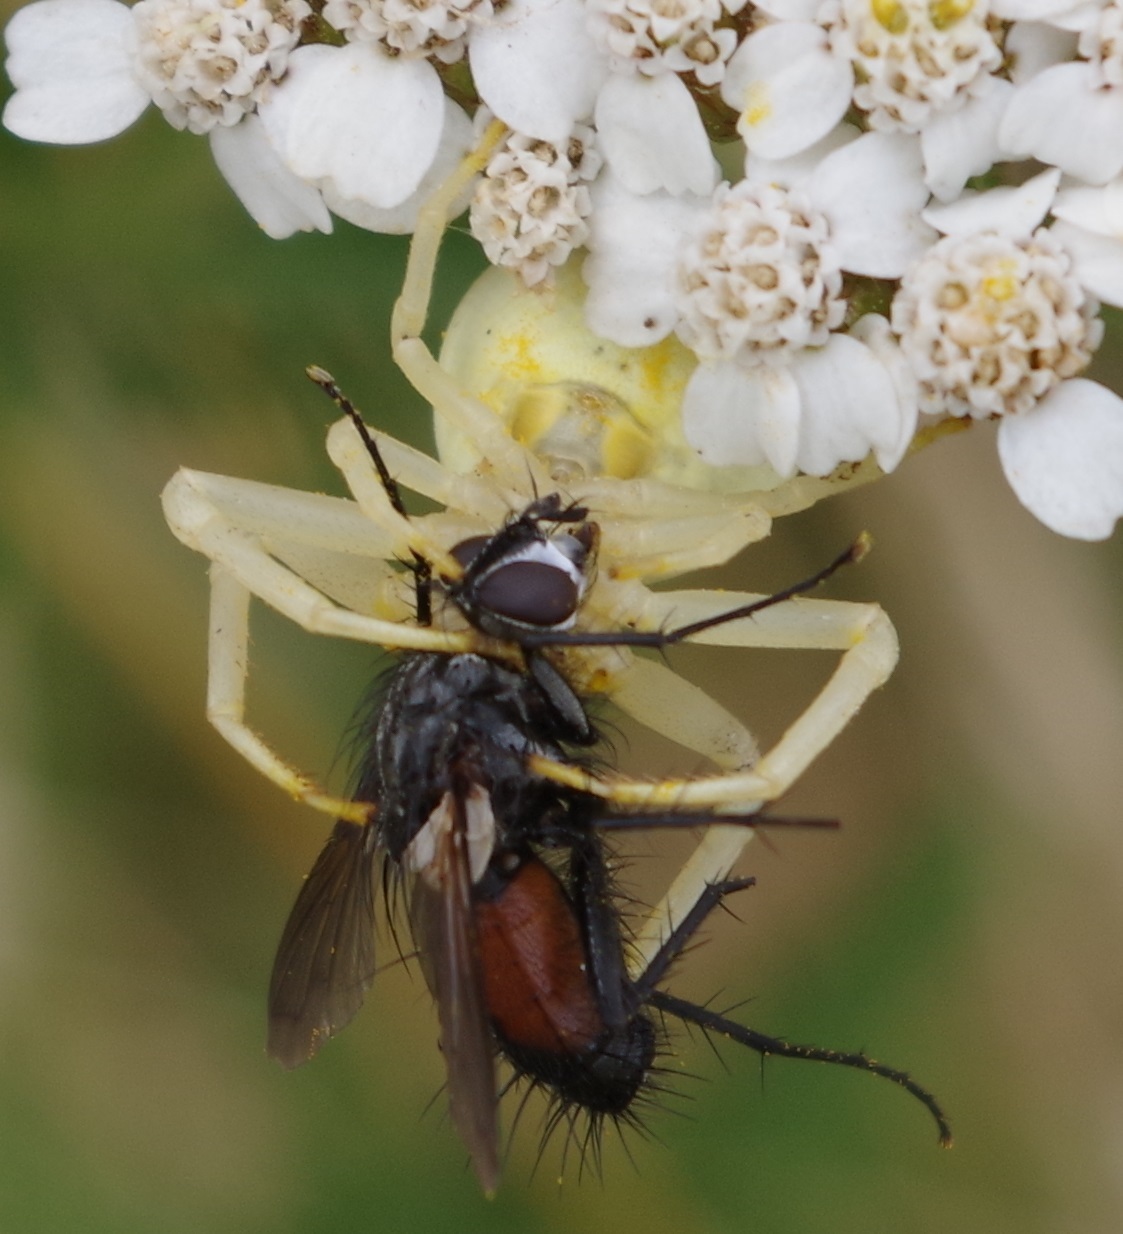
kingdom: Animalia
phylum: Arthropoda
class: Arachnida
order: Araneae
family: Thomisidae
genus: Misumena
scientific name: Misumena vatia
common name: Goldenrod crab spider
